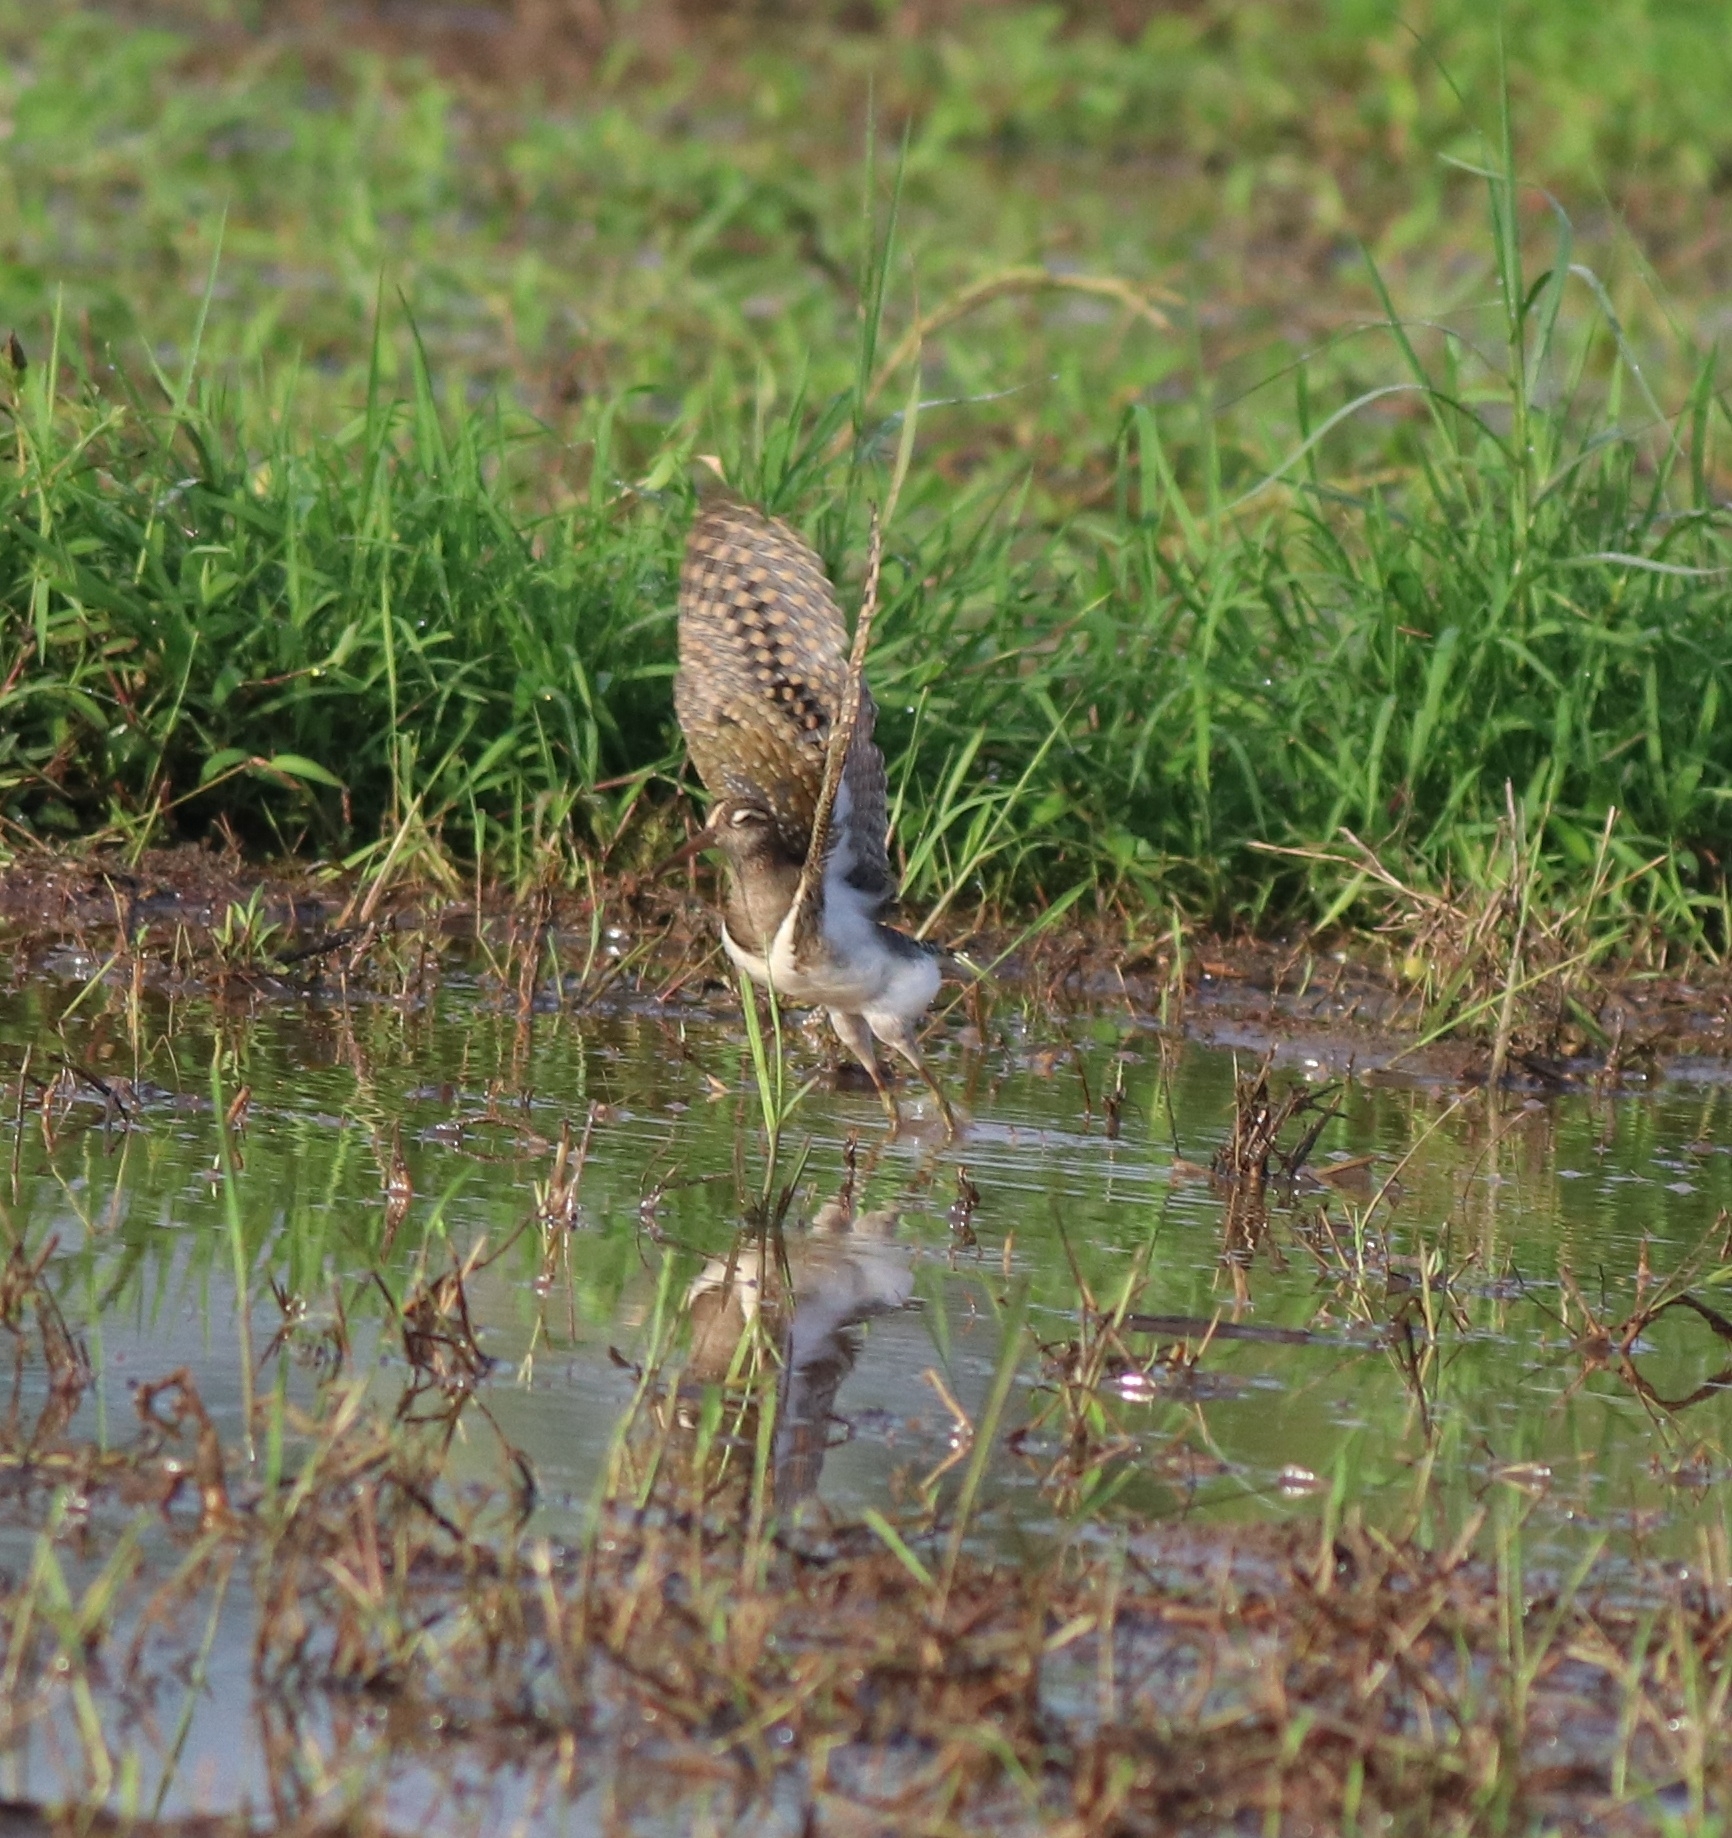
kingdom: Animalia
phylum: Chordata
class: Aves
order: Charadriiformes
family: Rostratulidae
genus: Rostratula
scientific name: Rostratula benghalensis
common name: Greater painted-snipe
